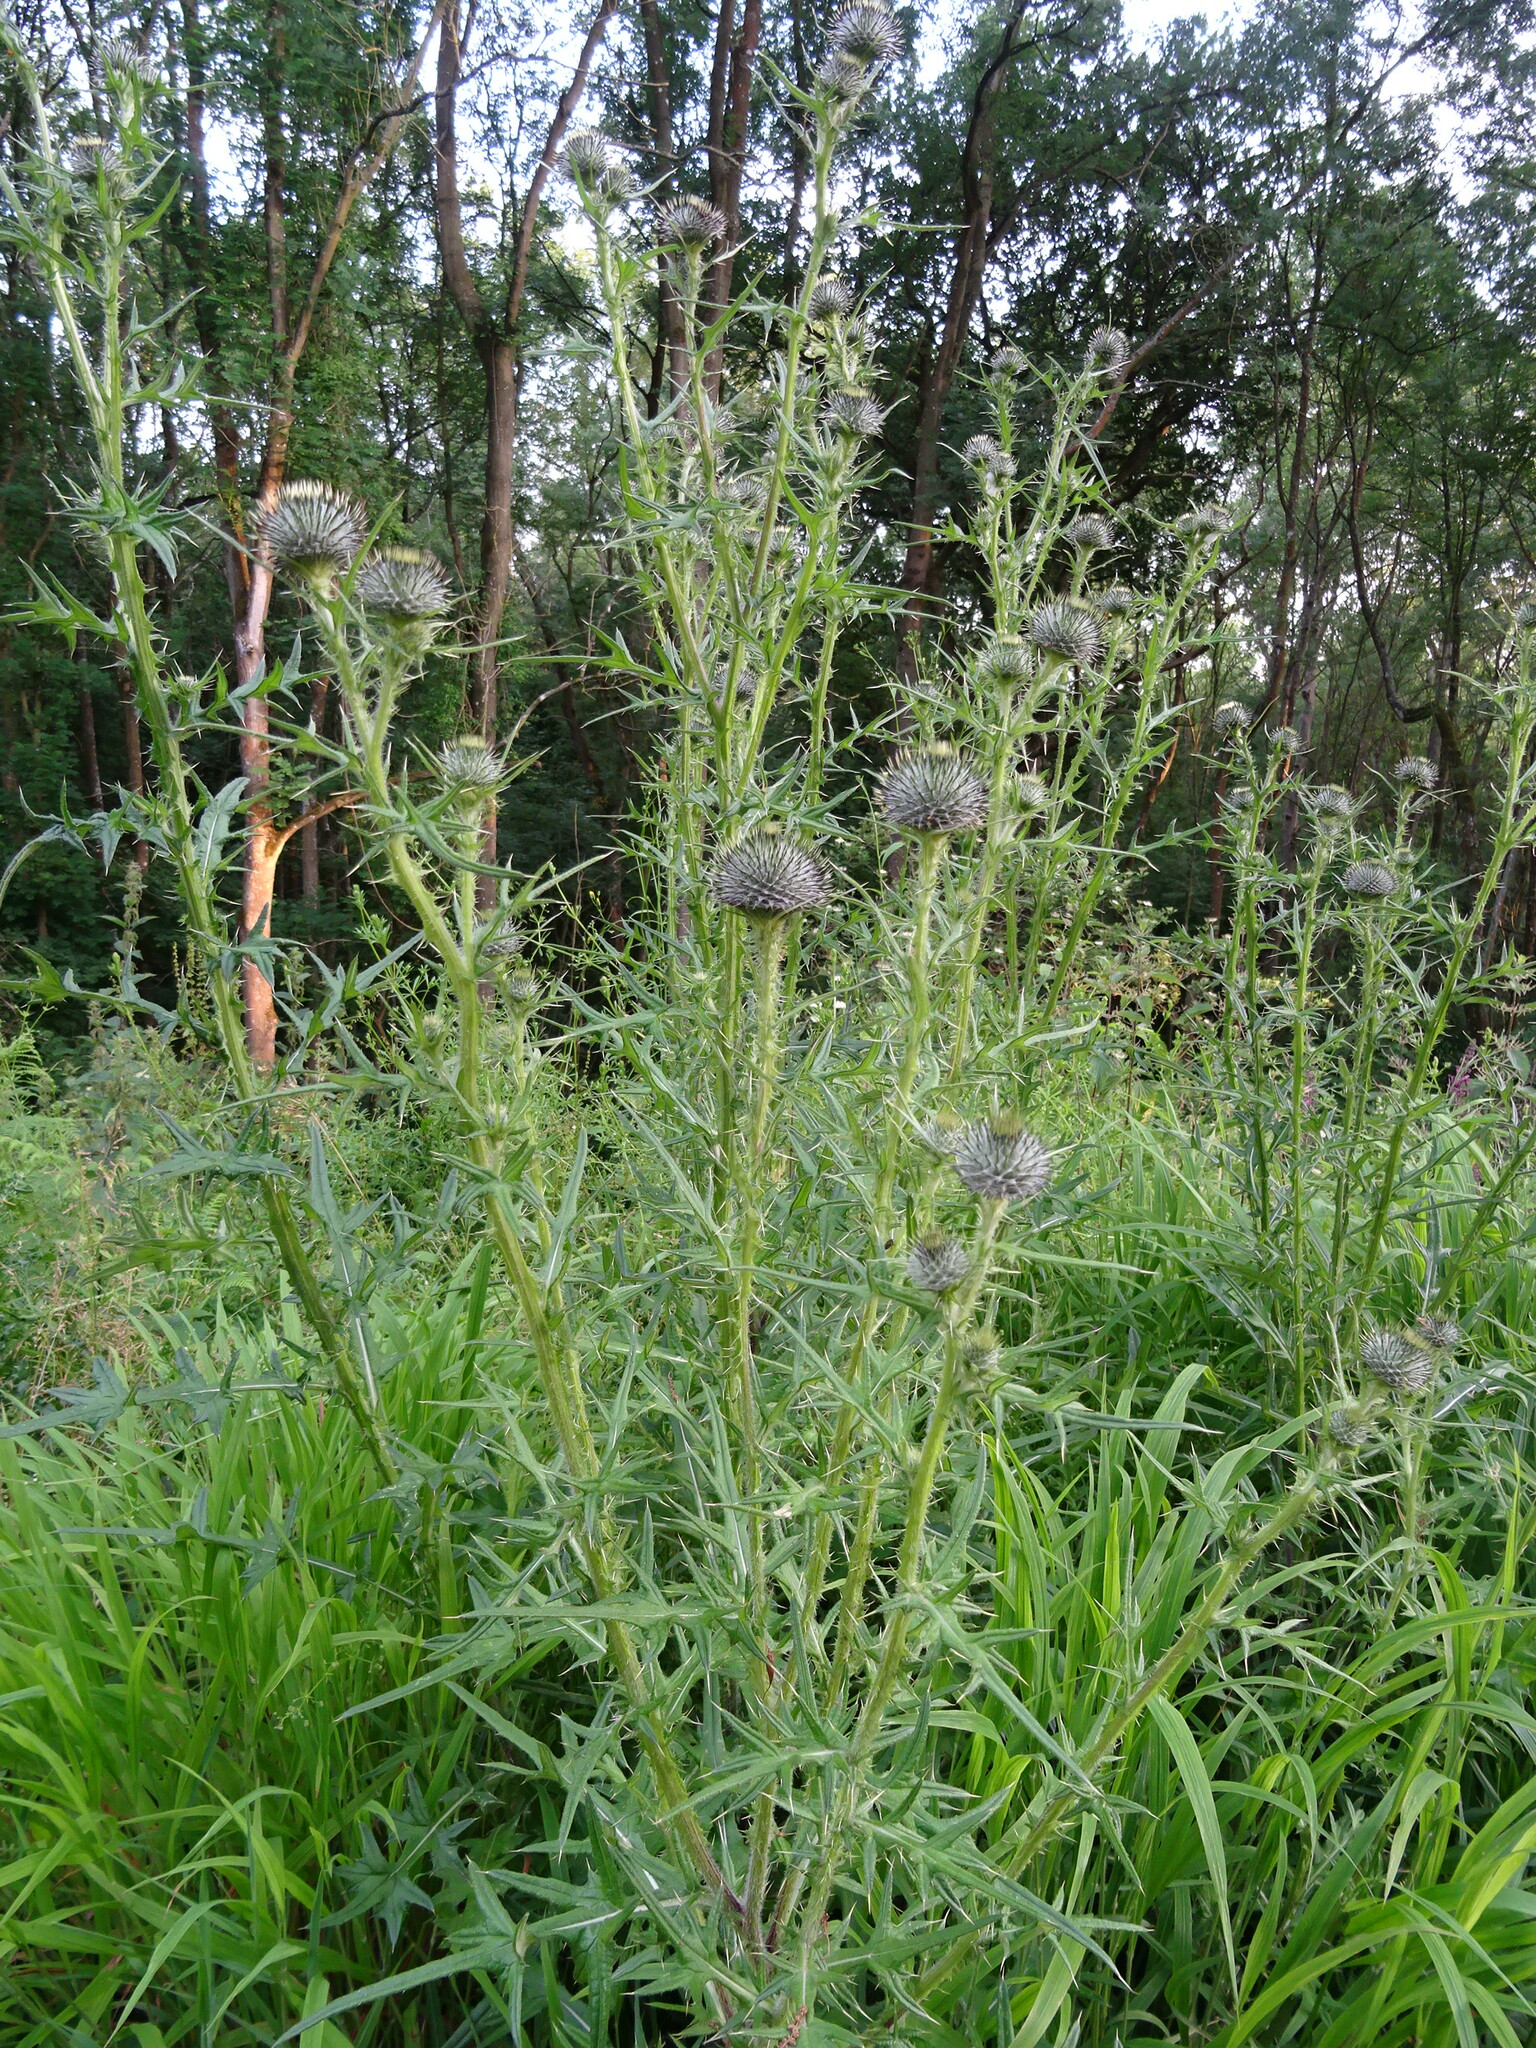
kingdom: Plantae
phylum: Tracheophyta
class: Magnoliopsida
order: Asterales
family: Asteraceae
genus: Cirsium
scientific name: Cirsium vulgare
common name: Bull thistle
